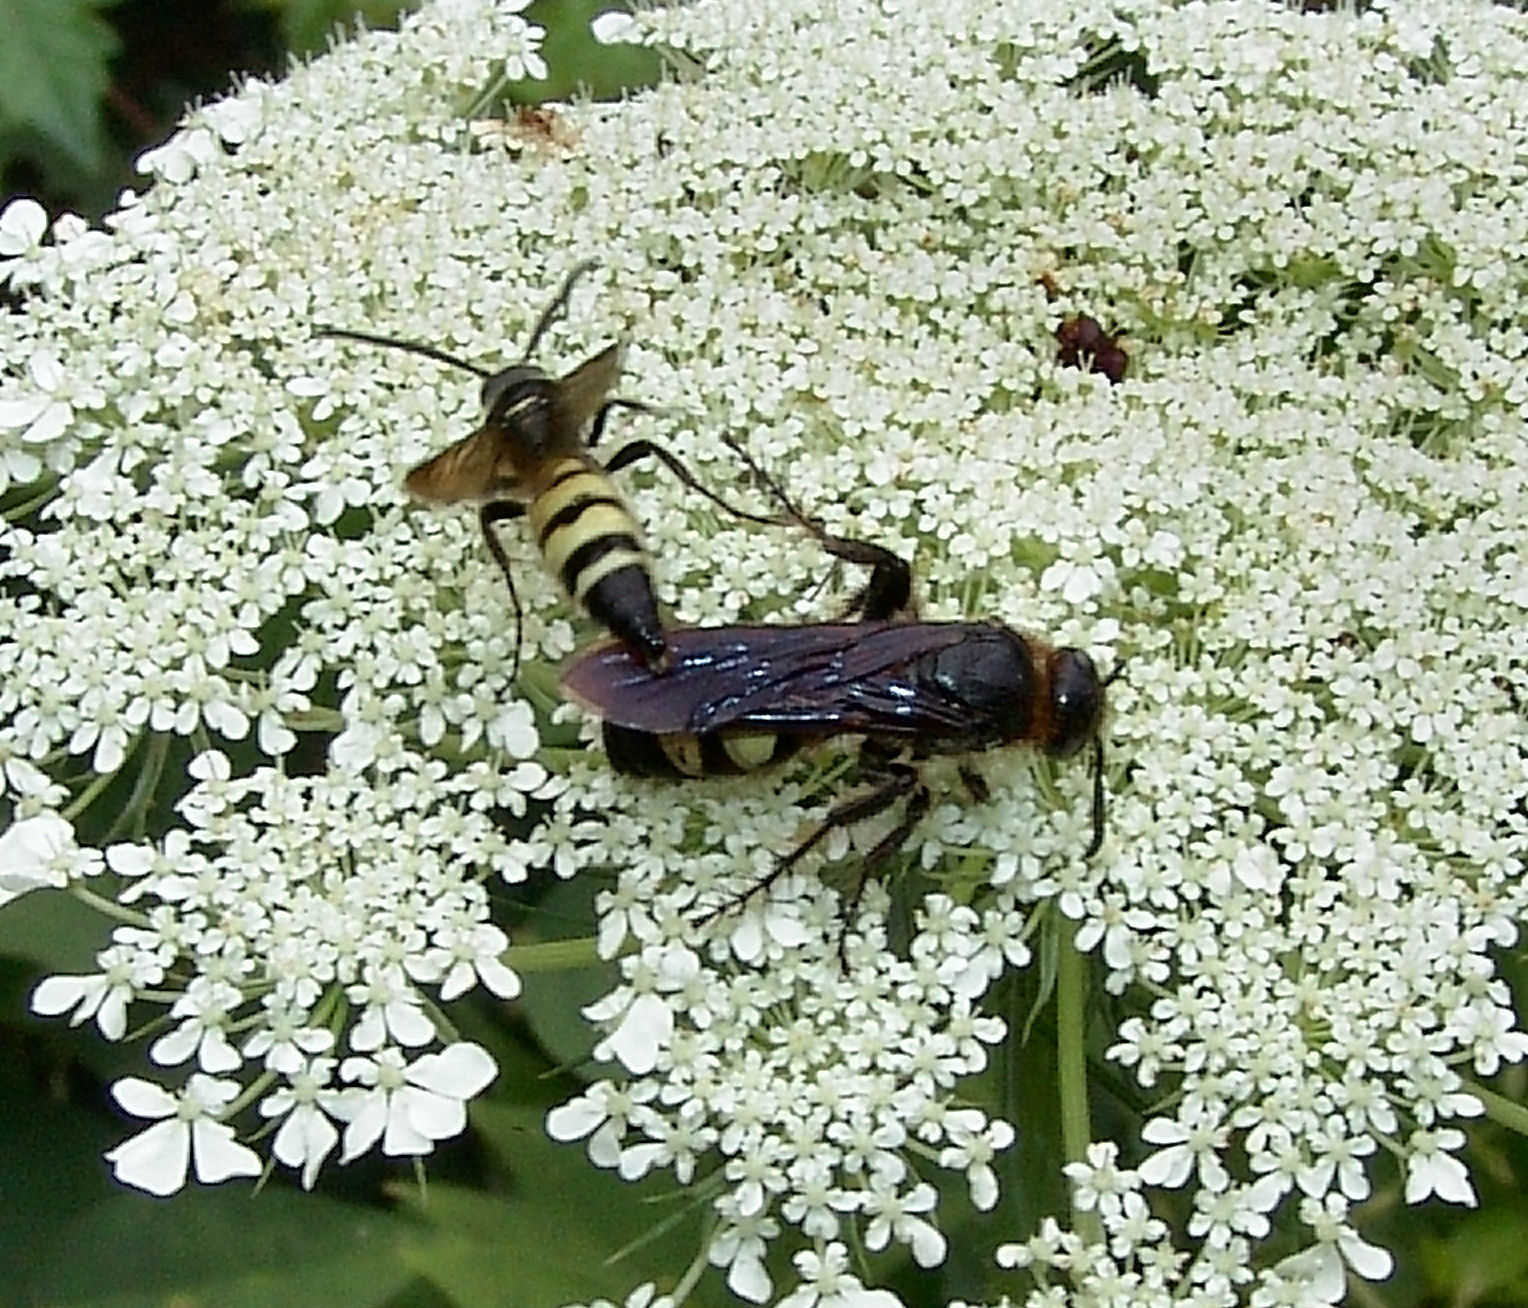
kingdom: Animalia
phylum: Arthropoda
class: Insecta
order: Hymenoptera
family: Scoliidae
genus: Dielis
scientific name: Dielis
